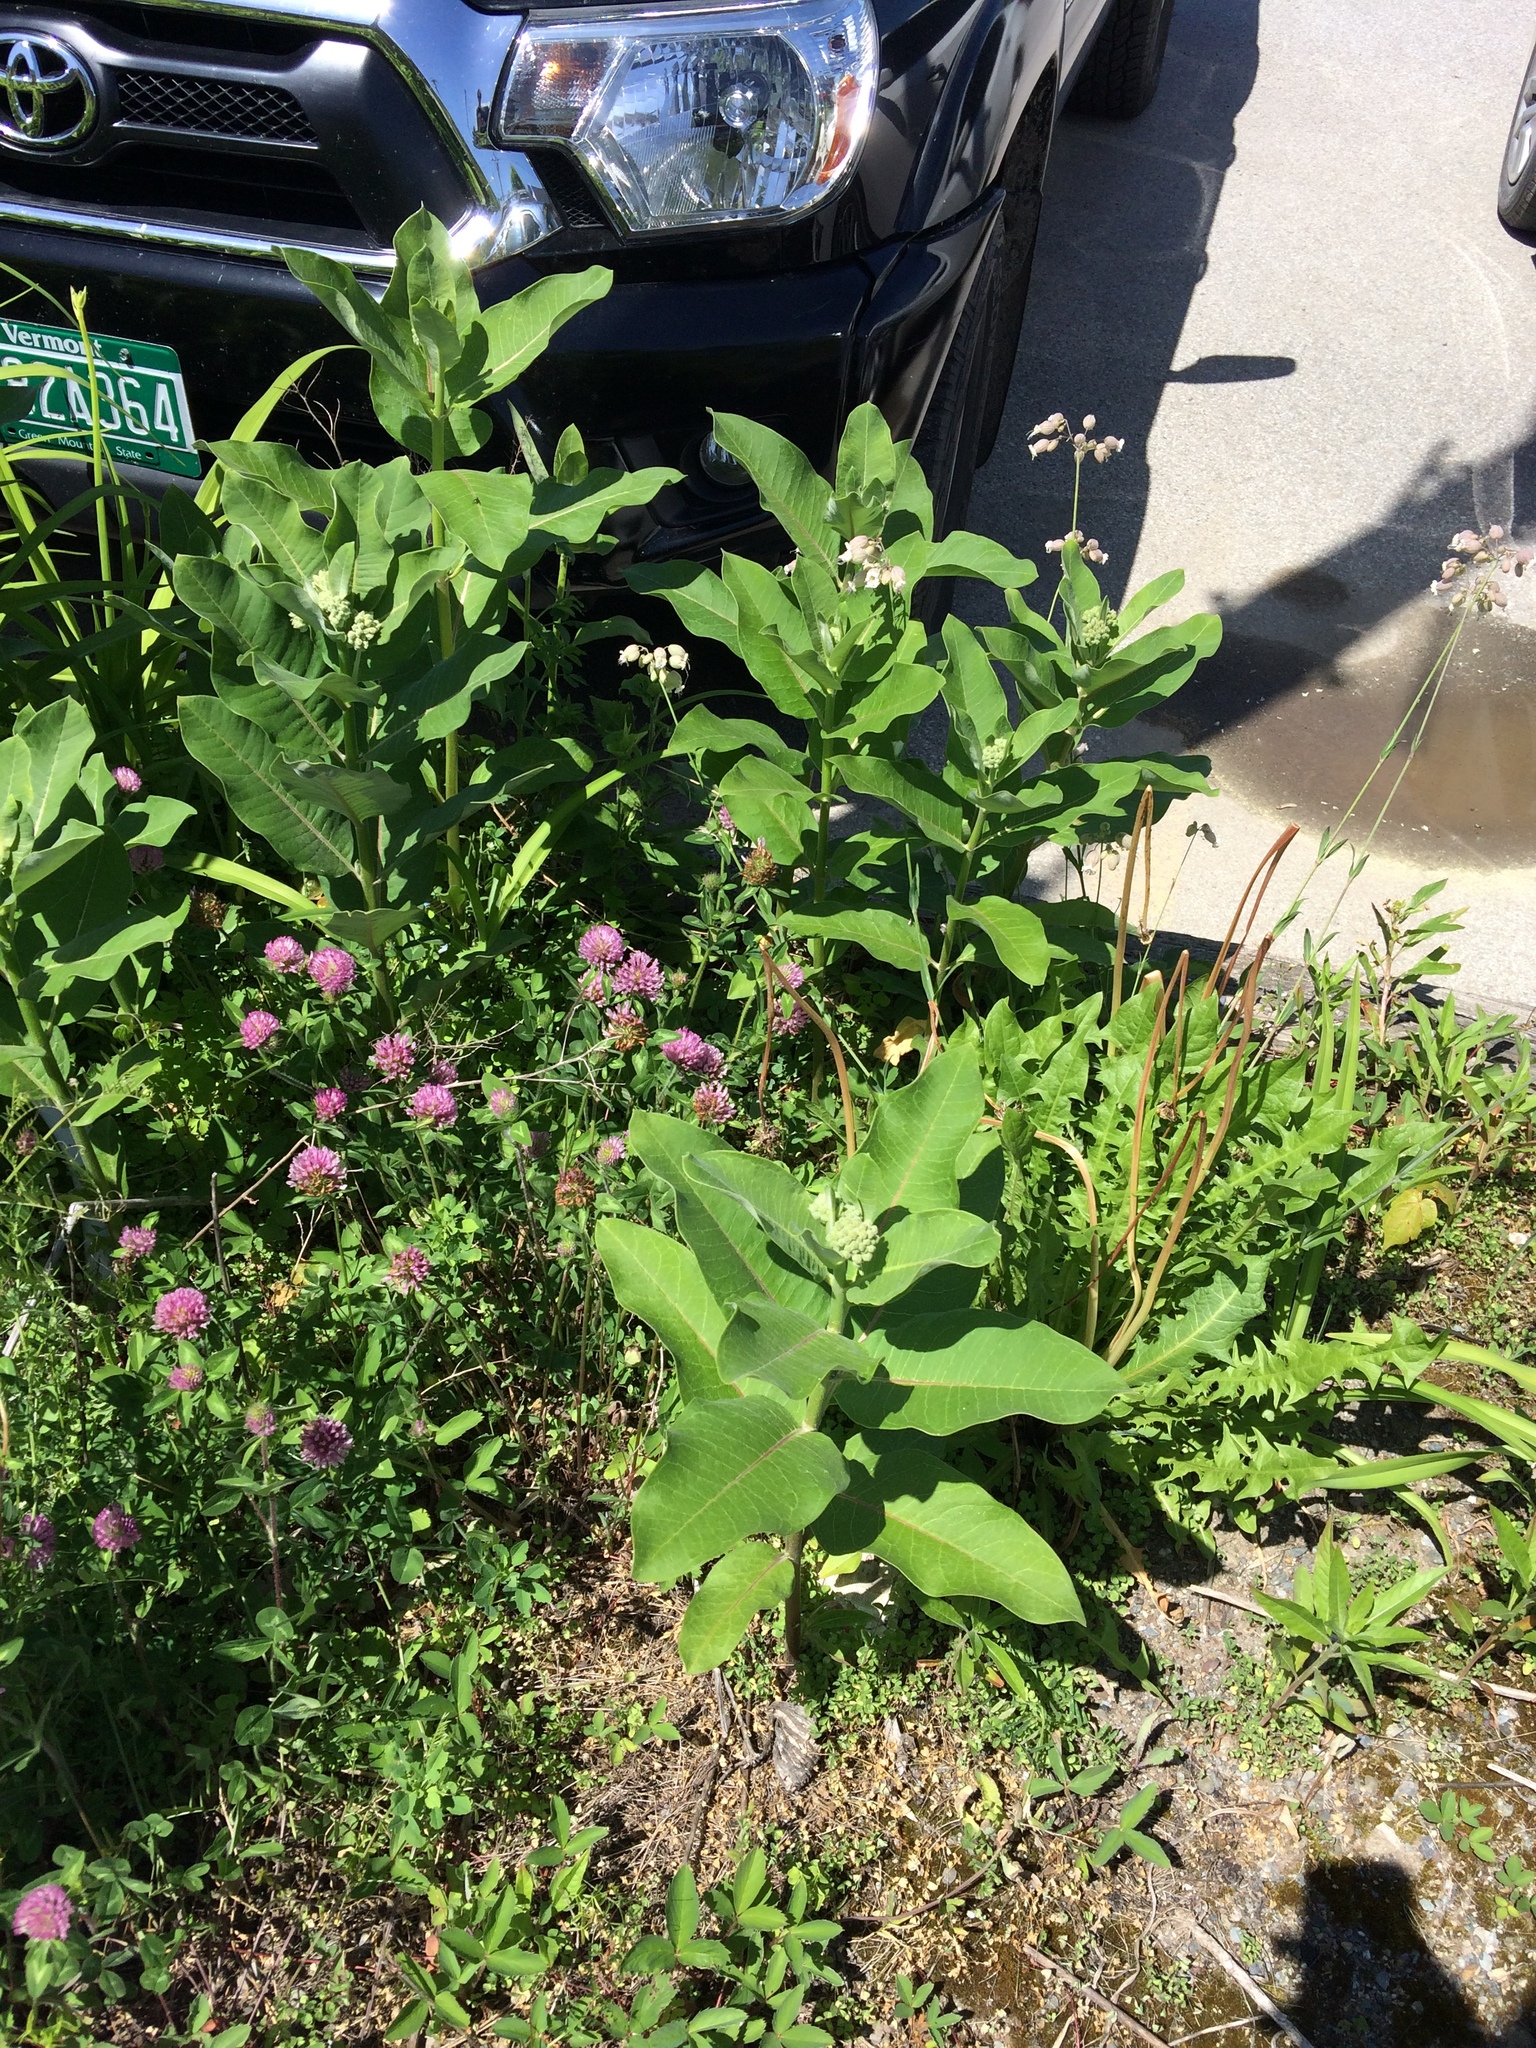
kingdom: Plantae
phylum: Tracheophyta
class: Magnoliopsida
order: Caryophyllales
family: Caryophyllaceae
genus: Silene
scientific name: Silene vulgaris
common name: Bladder campion
